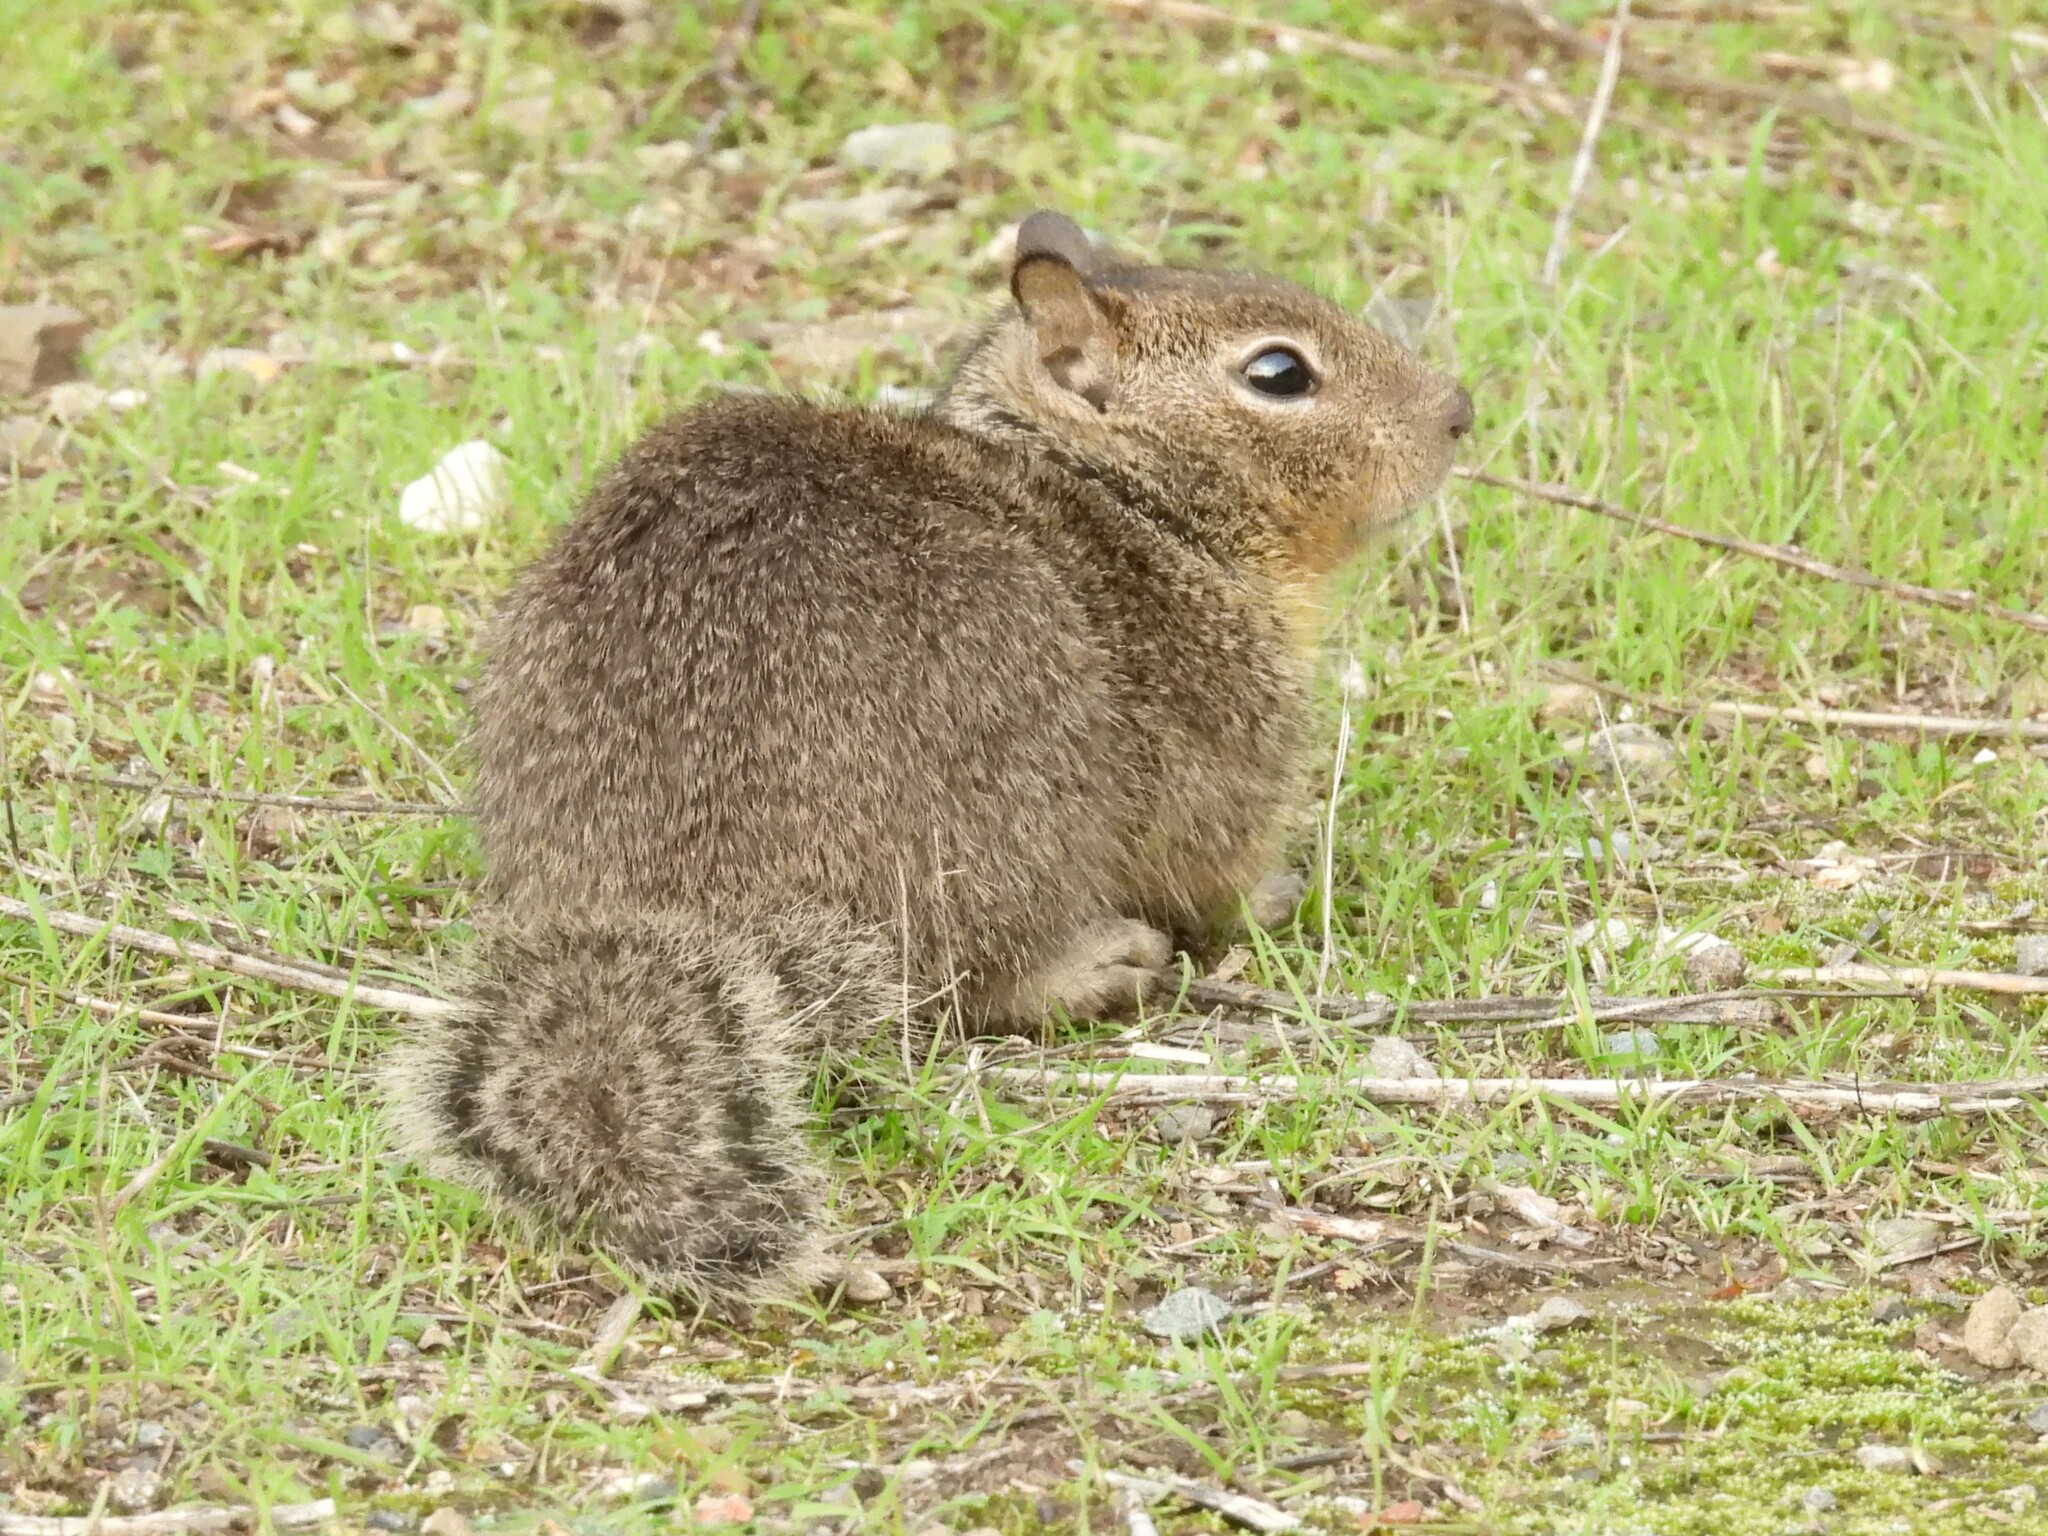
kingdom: Animalia
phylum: Chordata
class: Mammalia
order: Rodentia
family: Sciuridae
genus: Otospermophilus
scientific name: Otospermophilus beecheyi
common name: California ground squirrel
